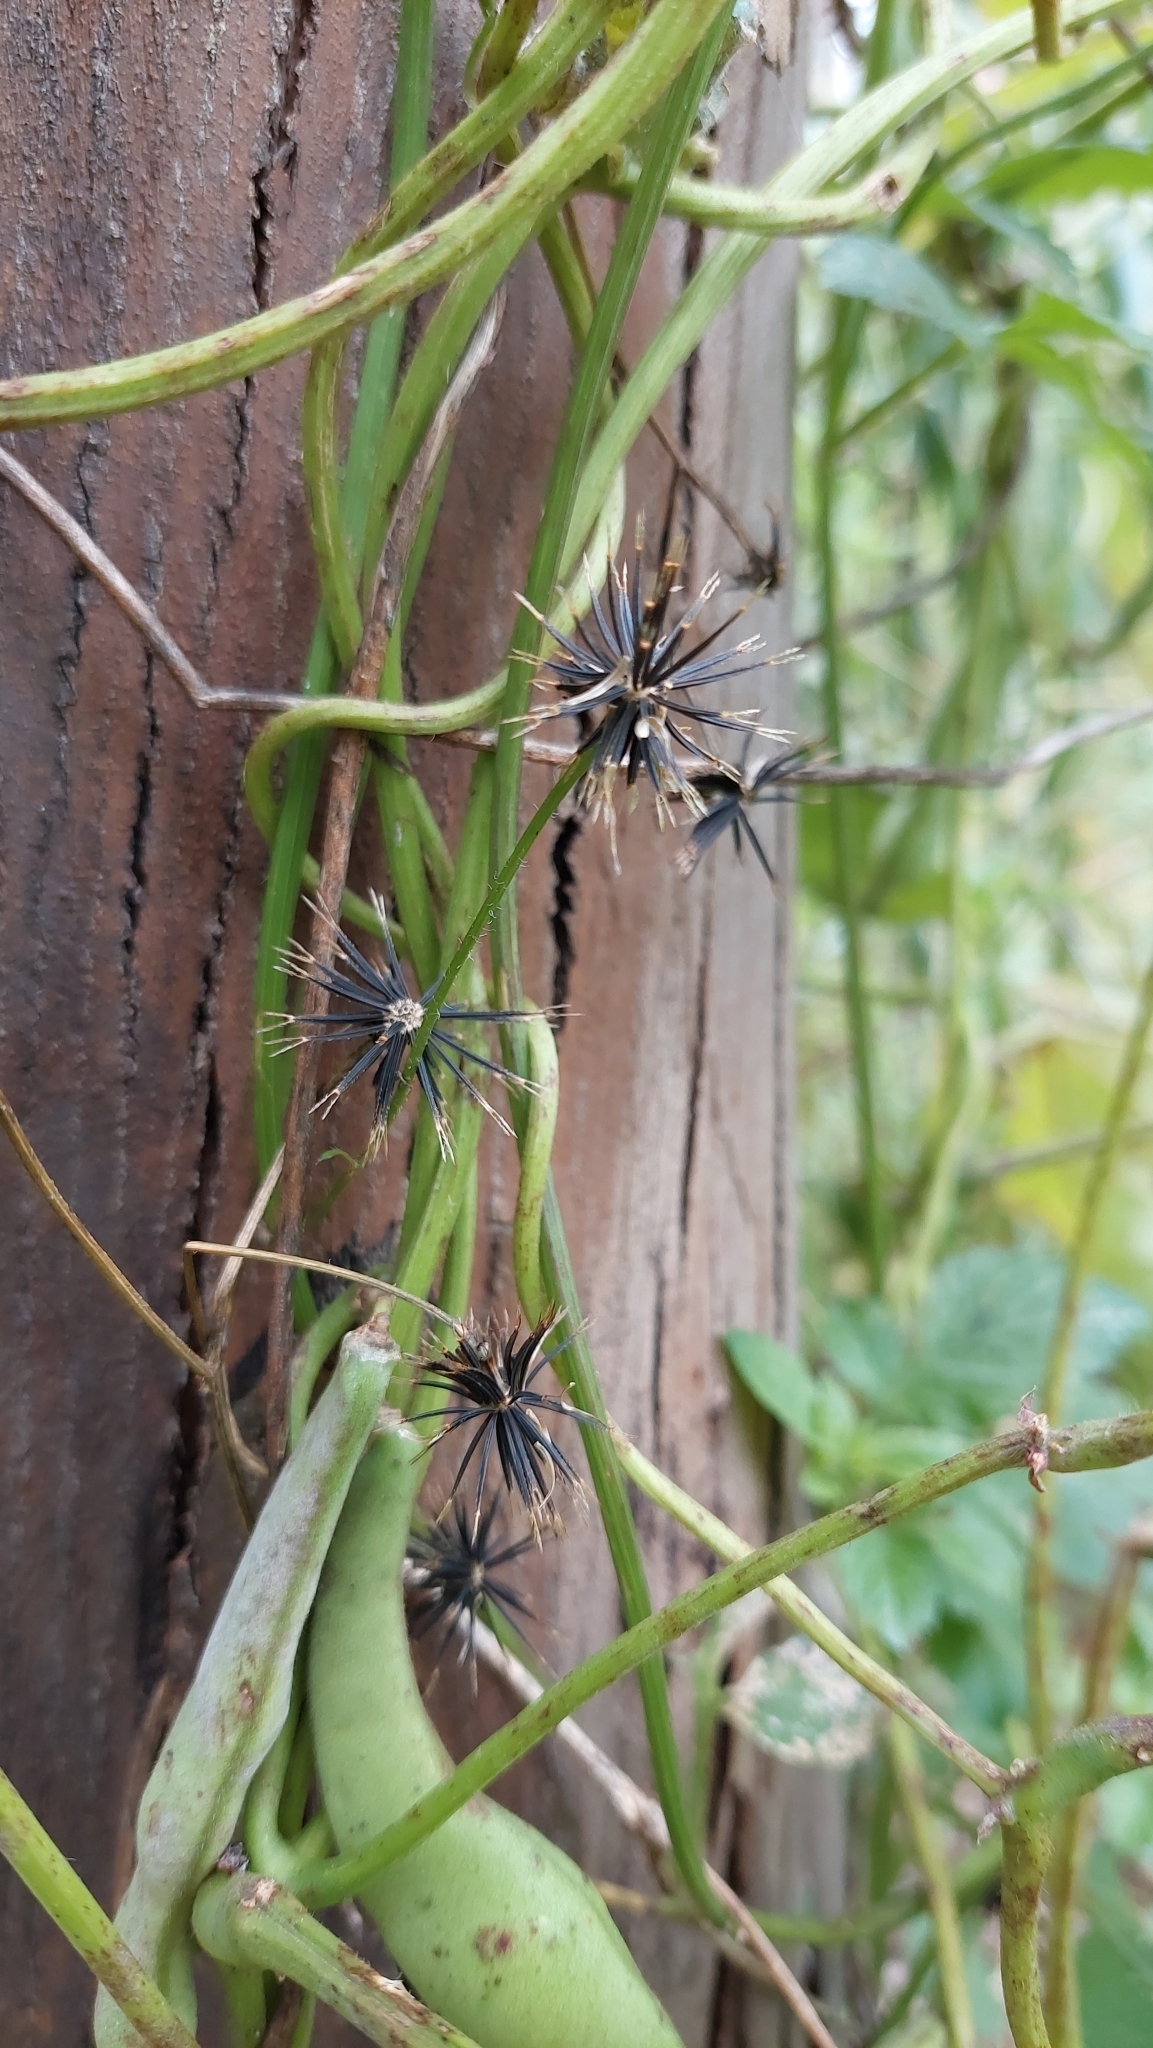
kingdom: Plantae
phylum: Tracheophyta
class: Magnoliopsida
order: Asterales
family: Asteraceae
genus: Bidens
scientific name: Bidens pilosa
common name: Black-jack
